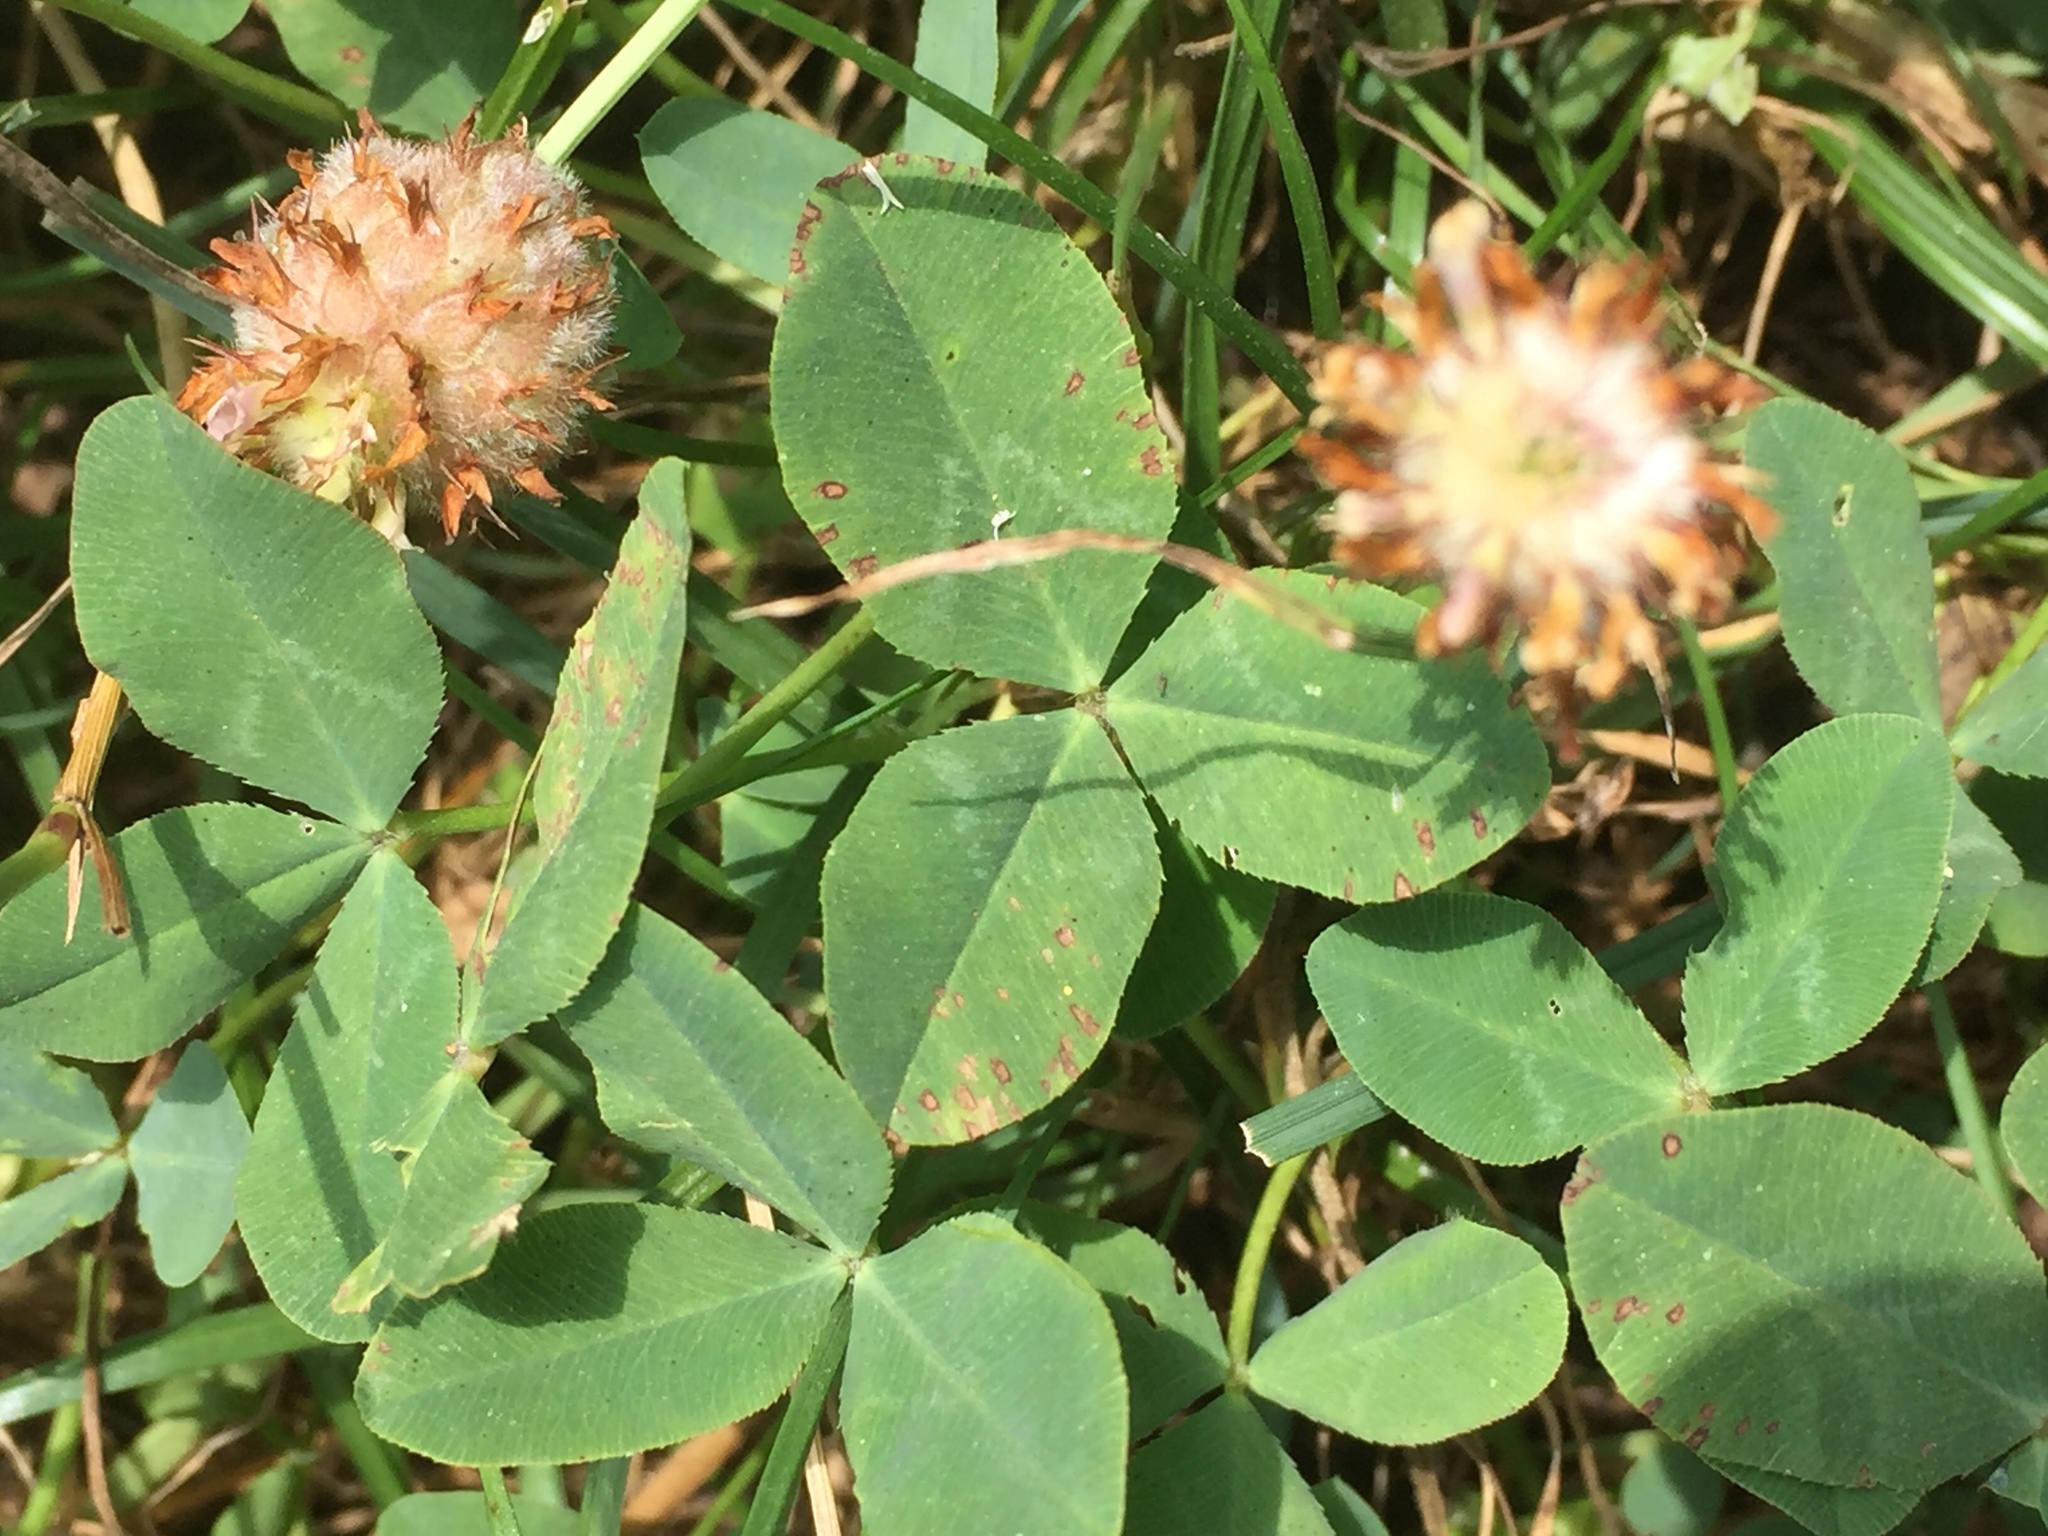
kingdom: Plantae
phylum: Tracheophyta
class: Magnoliopsida
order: Fabales
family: Fabaceae
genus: Trifolium
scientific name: Trifolium fragiferum
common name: Strawberry clover
